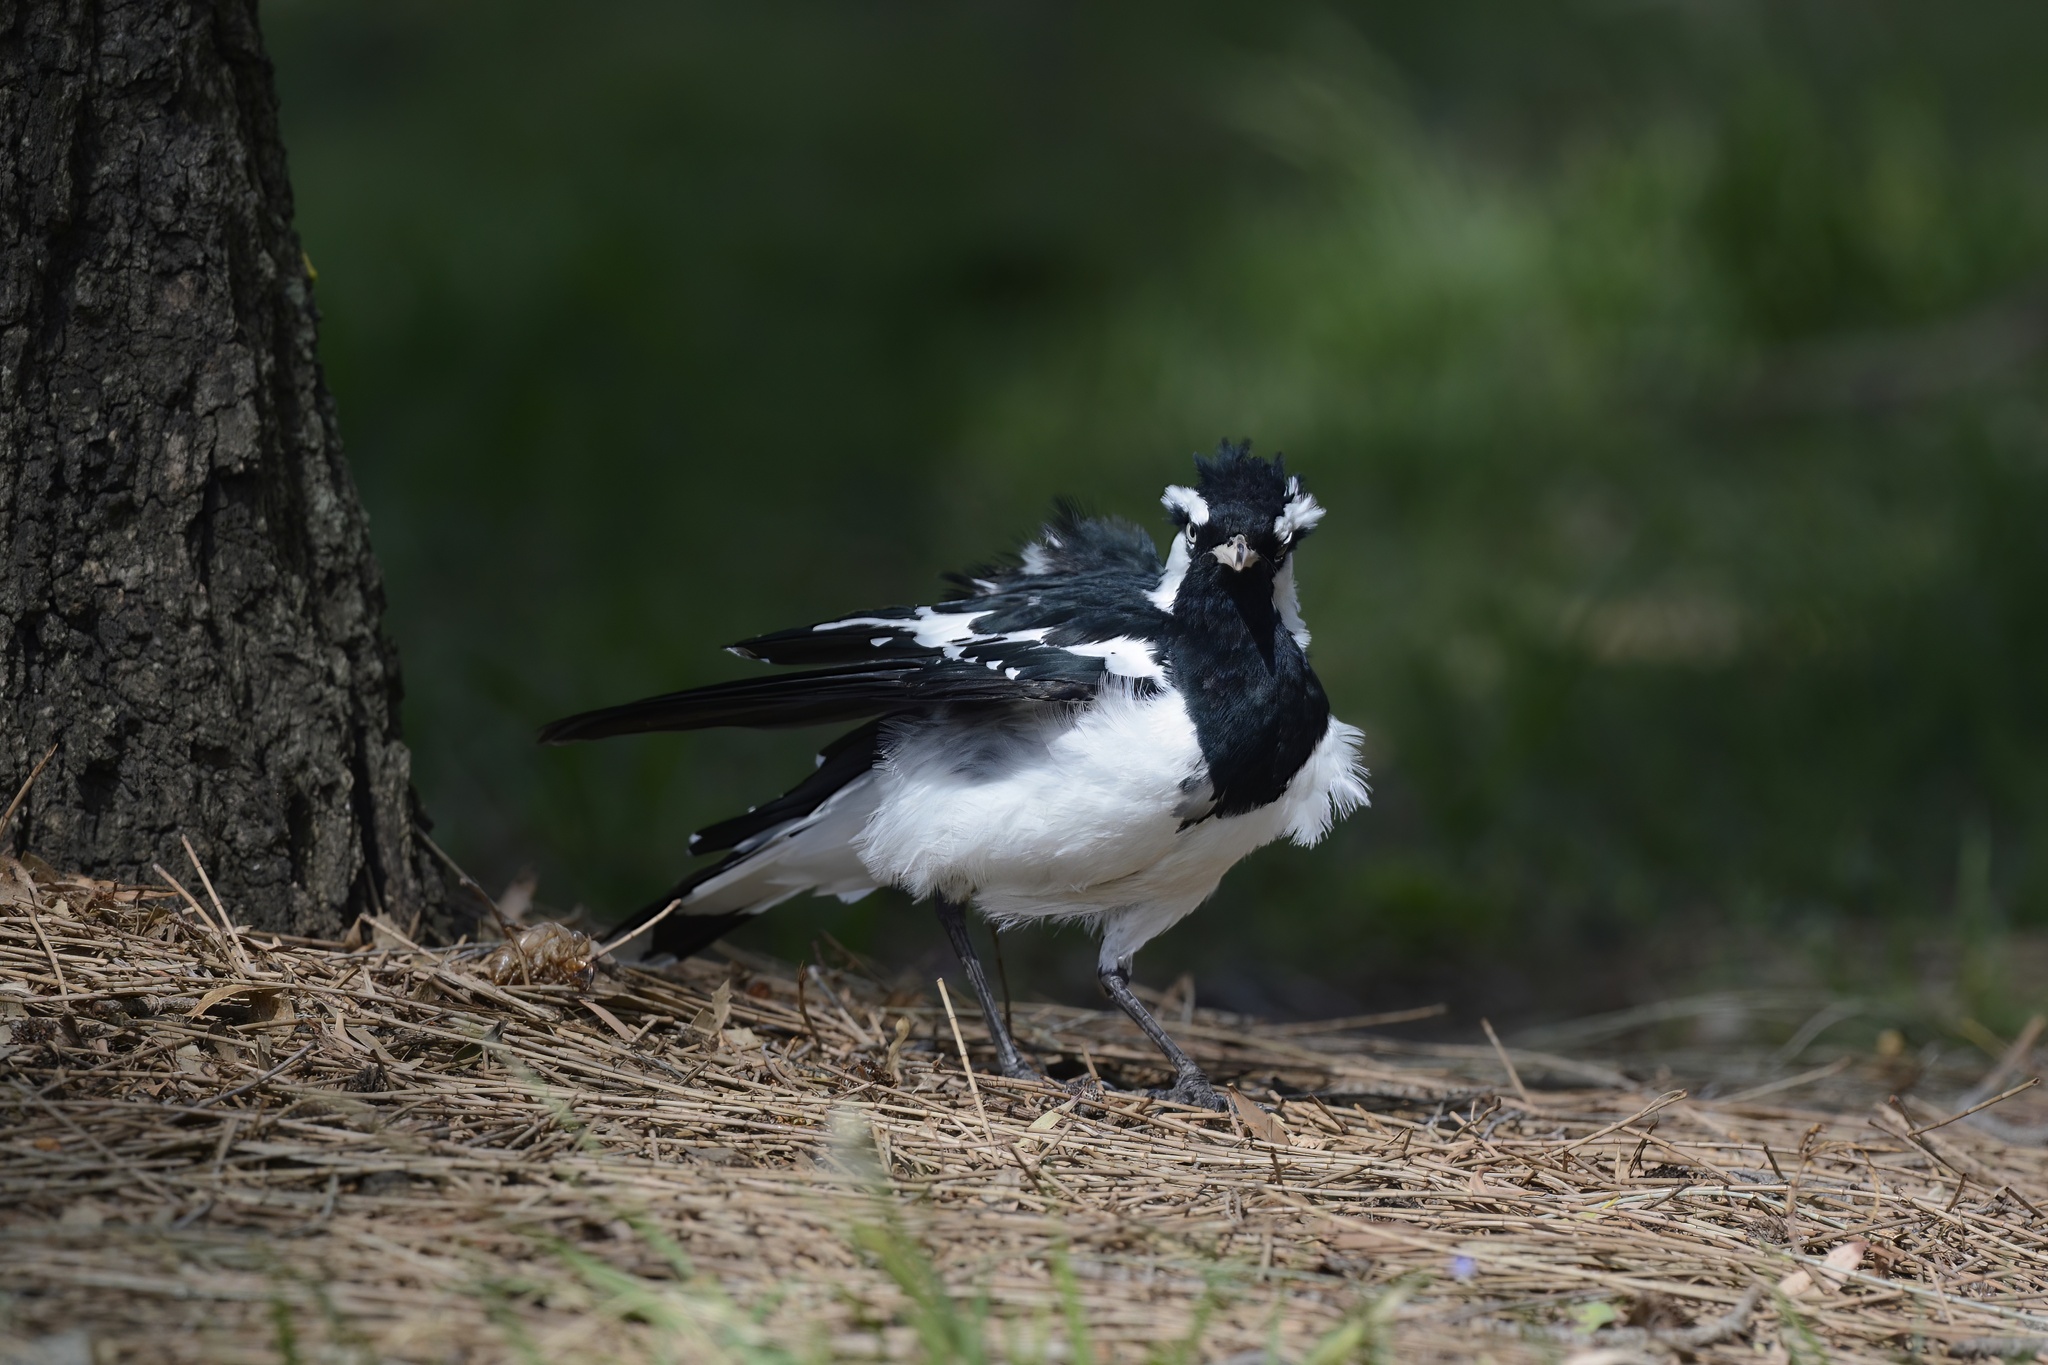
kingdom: Animalia
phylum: Chordata
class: Aves
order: Passeriformes
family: Monarchidae
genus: Grallina
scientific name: Grallina cyanoleuca
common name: Magpie-lark
